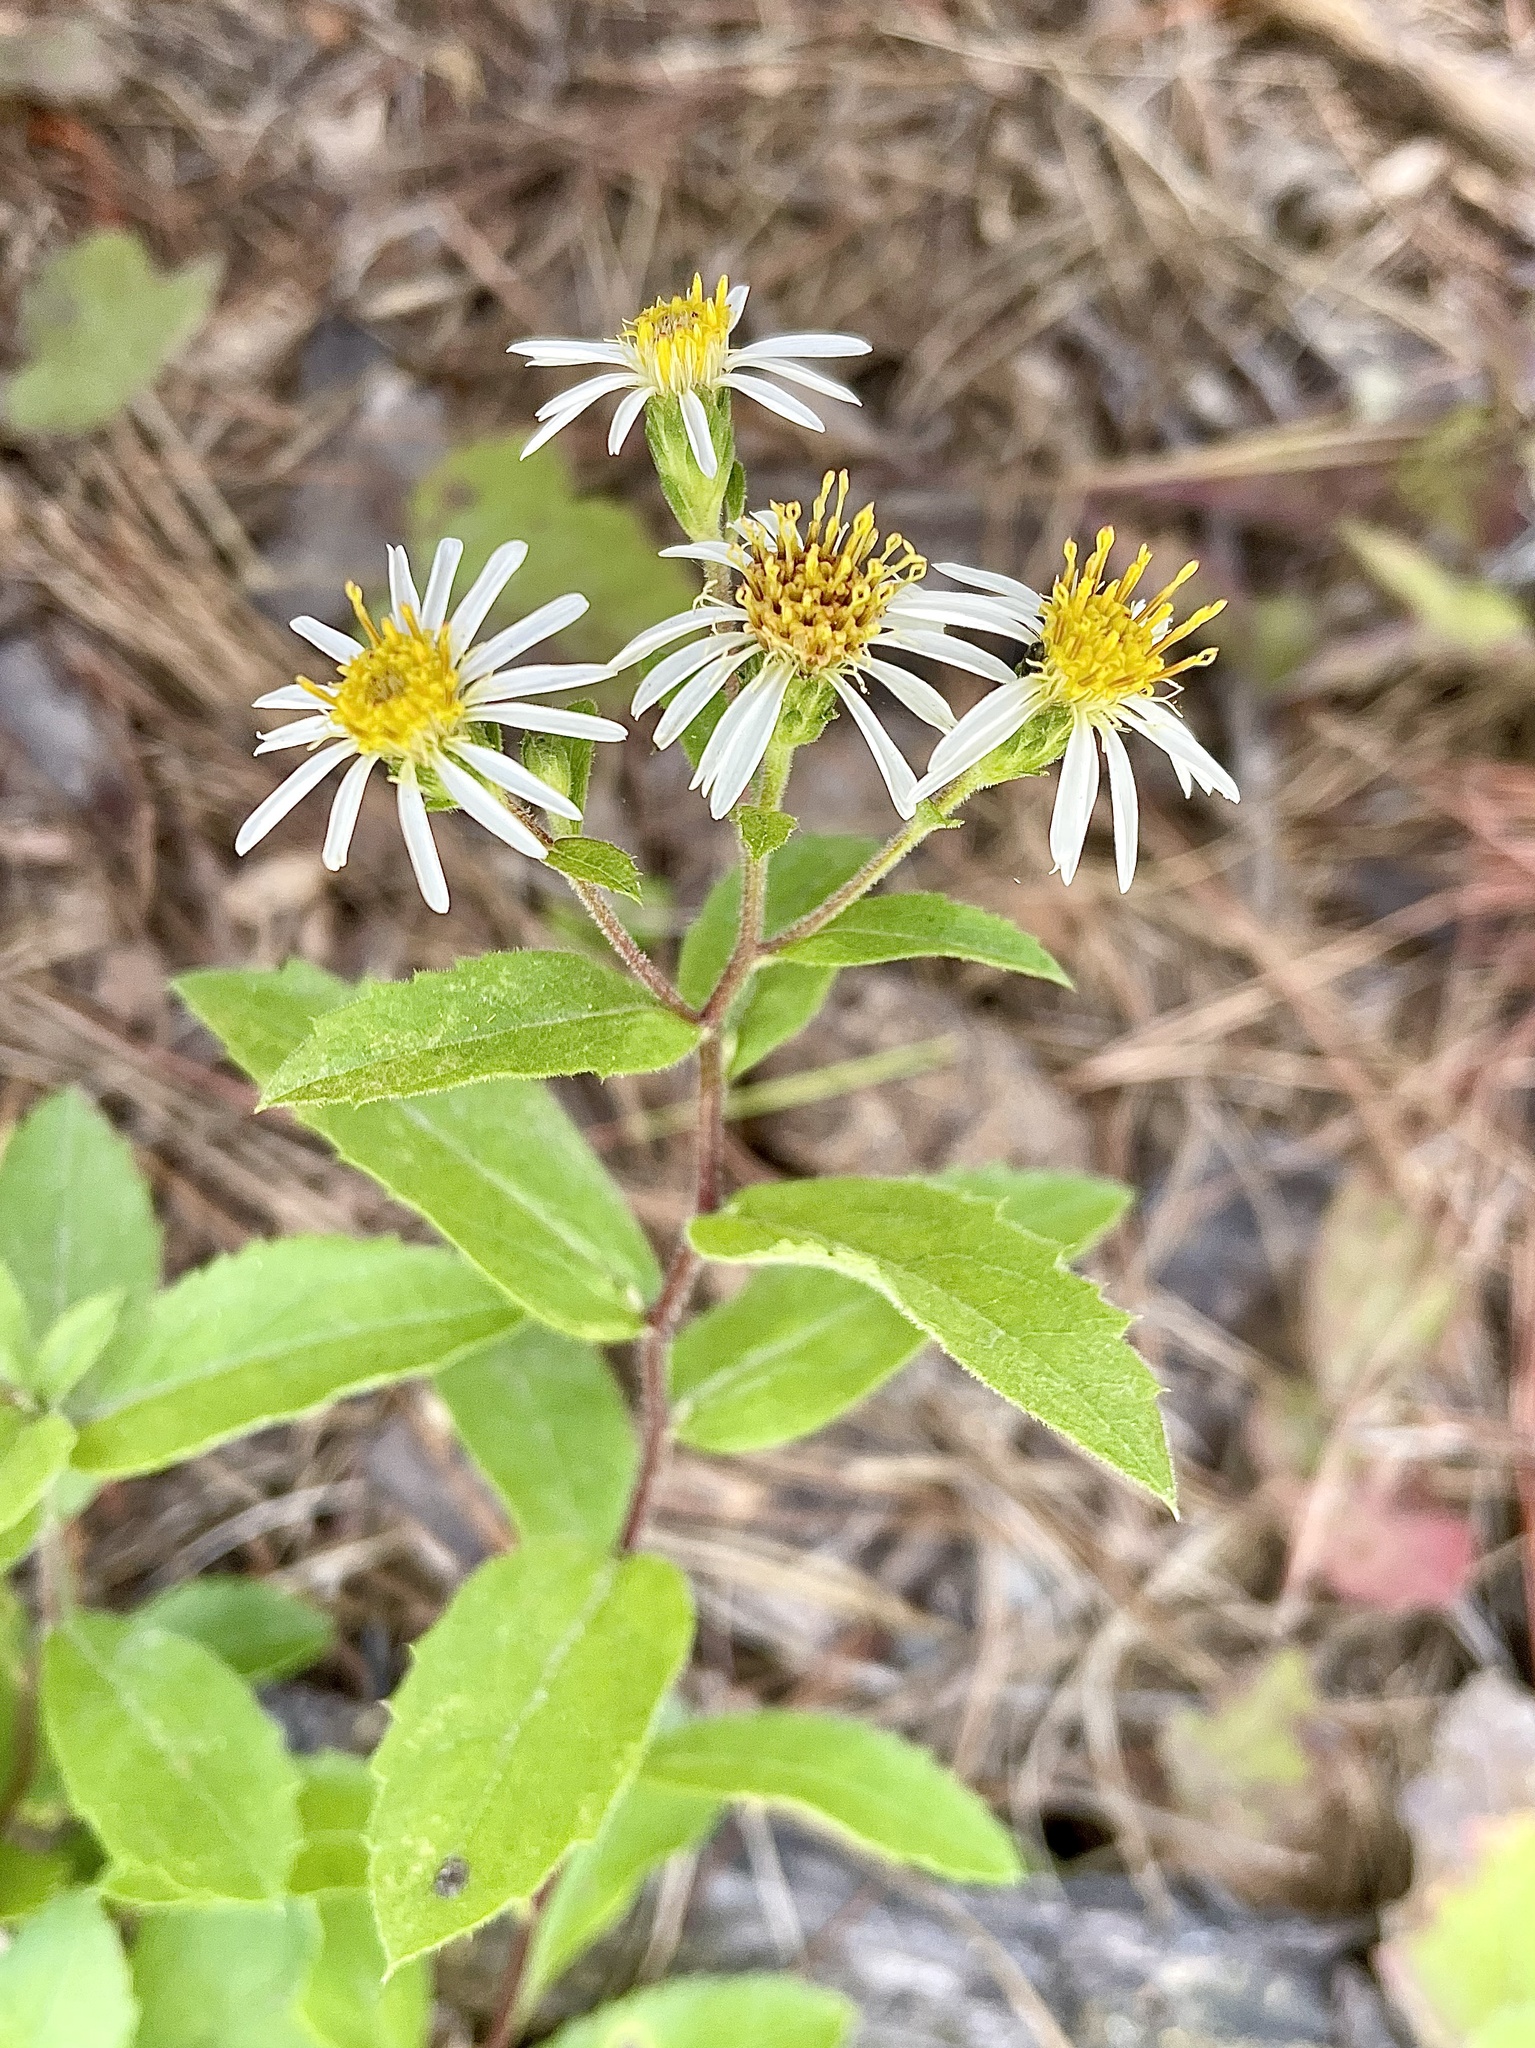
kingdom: Plantae
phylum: Tracheophyta
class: Magnoliopsida
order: Asterales
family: Asteraceae
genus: Eurybia
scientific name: Eurybia radulina
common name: Rough-leaved aster
